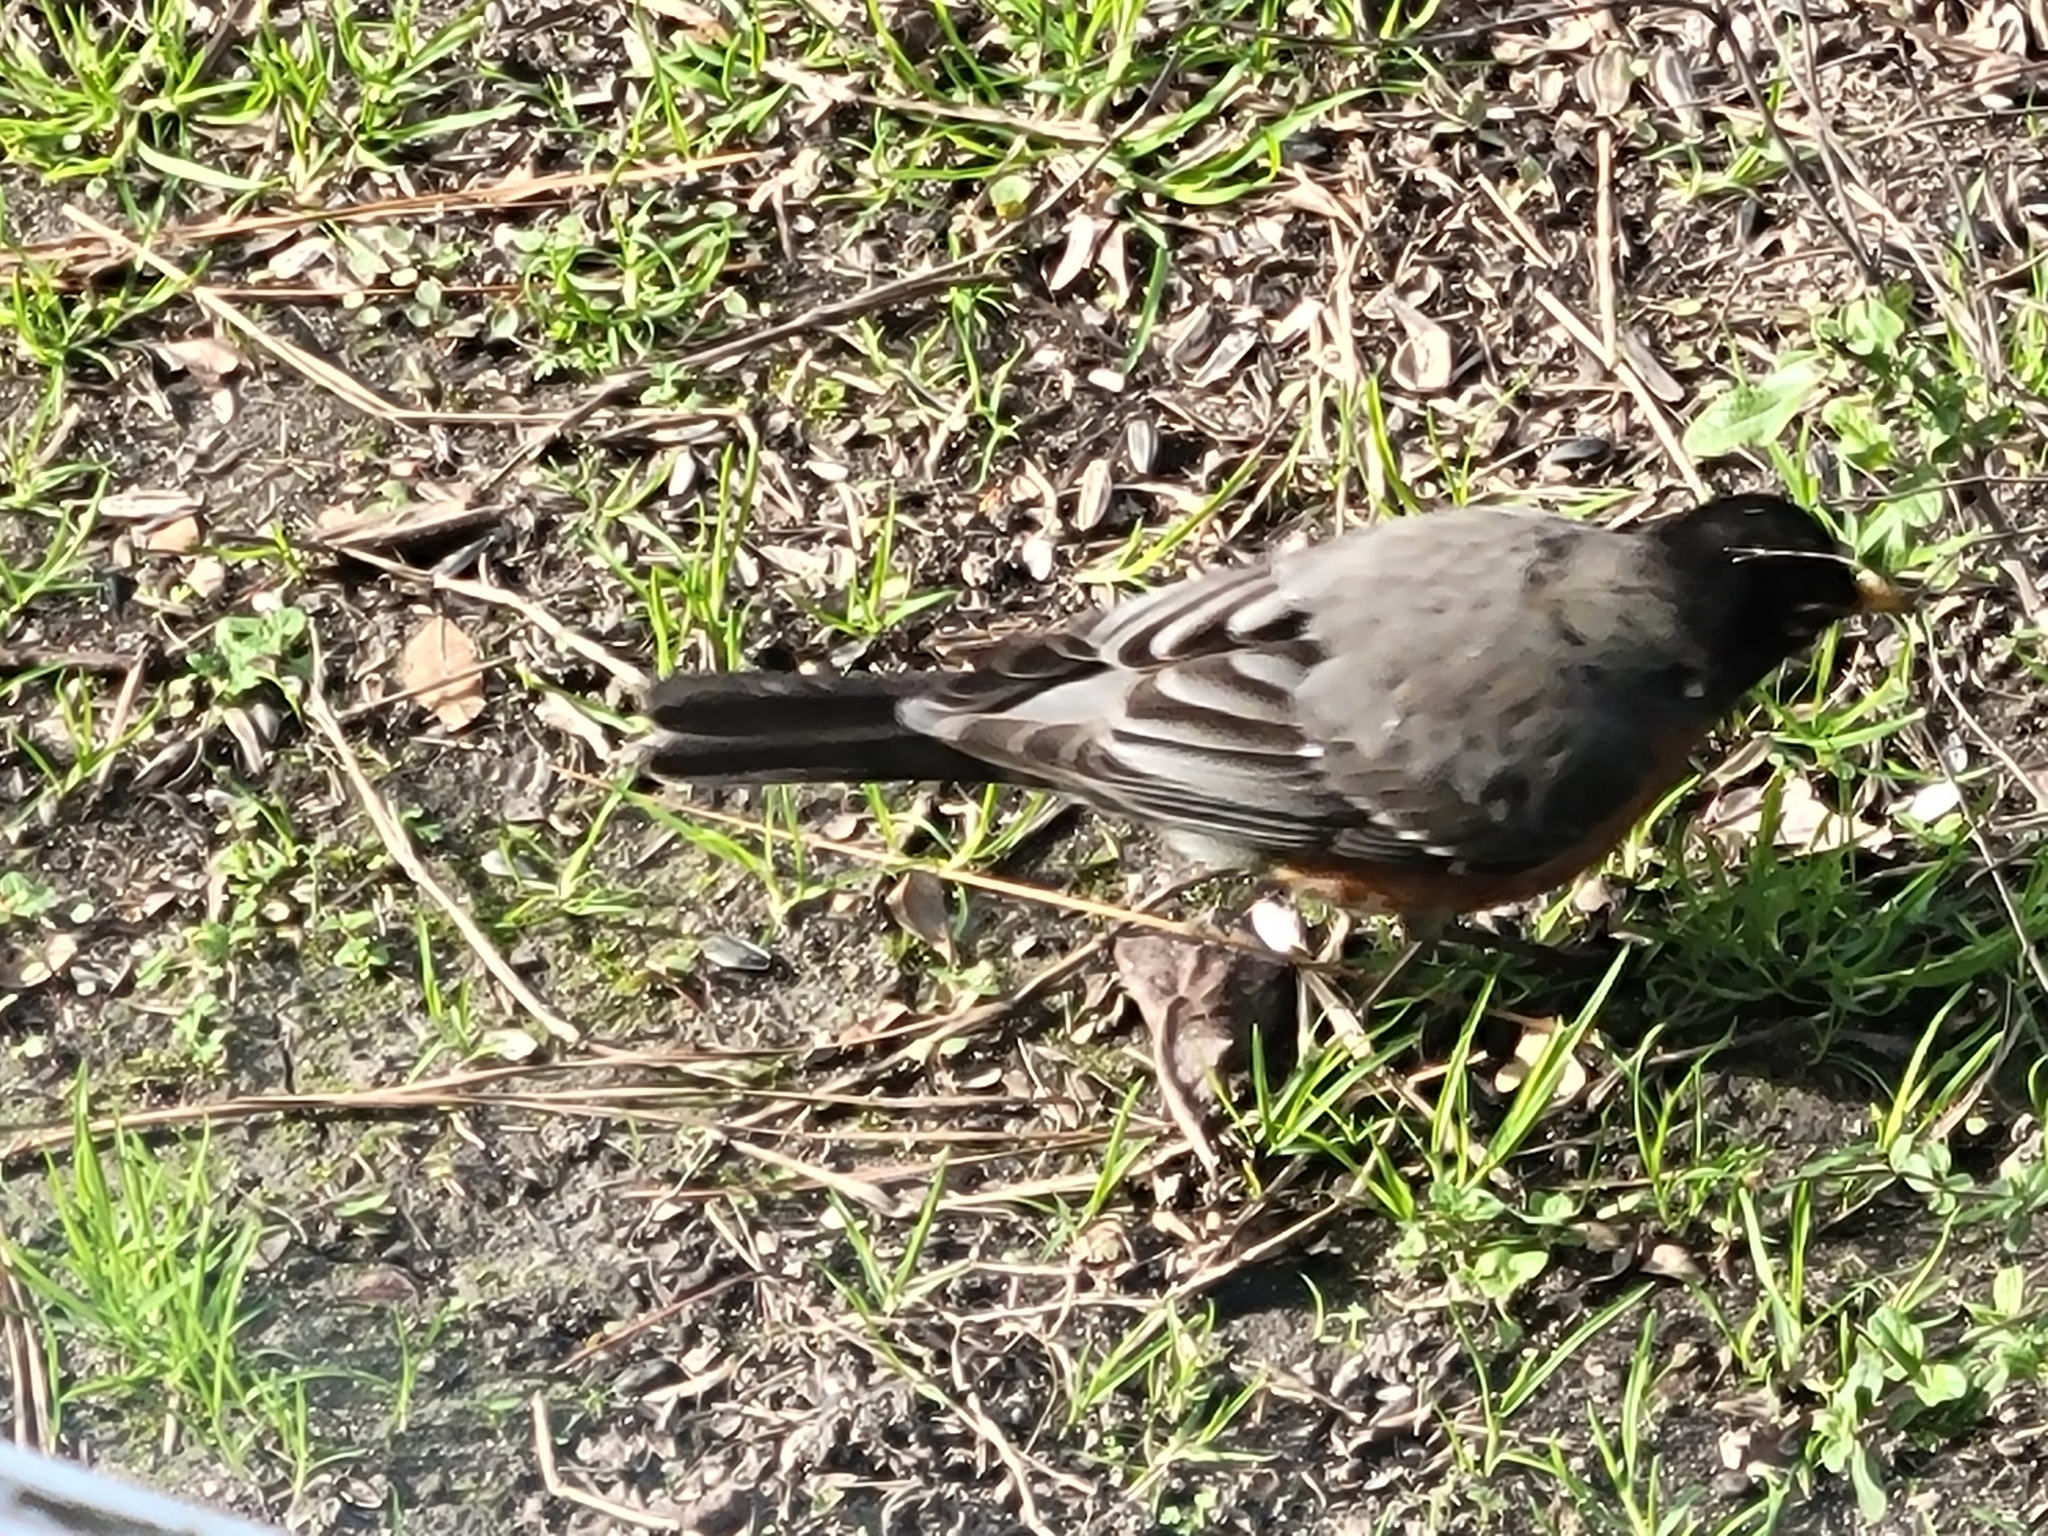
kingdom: Animalia
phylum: Chordata
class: Aves
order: Passeriformes
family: Turdidae
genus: Turdus
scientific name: Turdus migratorius
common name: American robin
